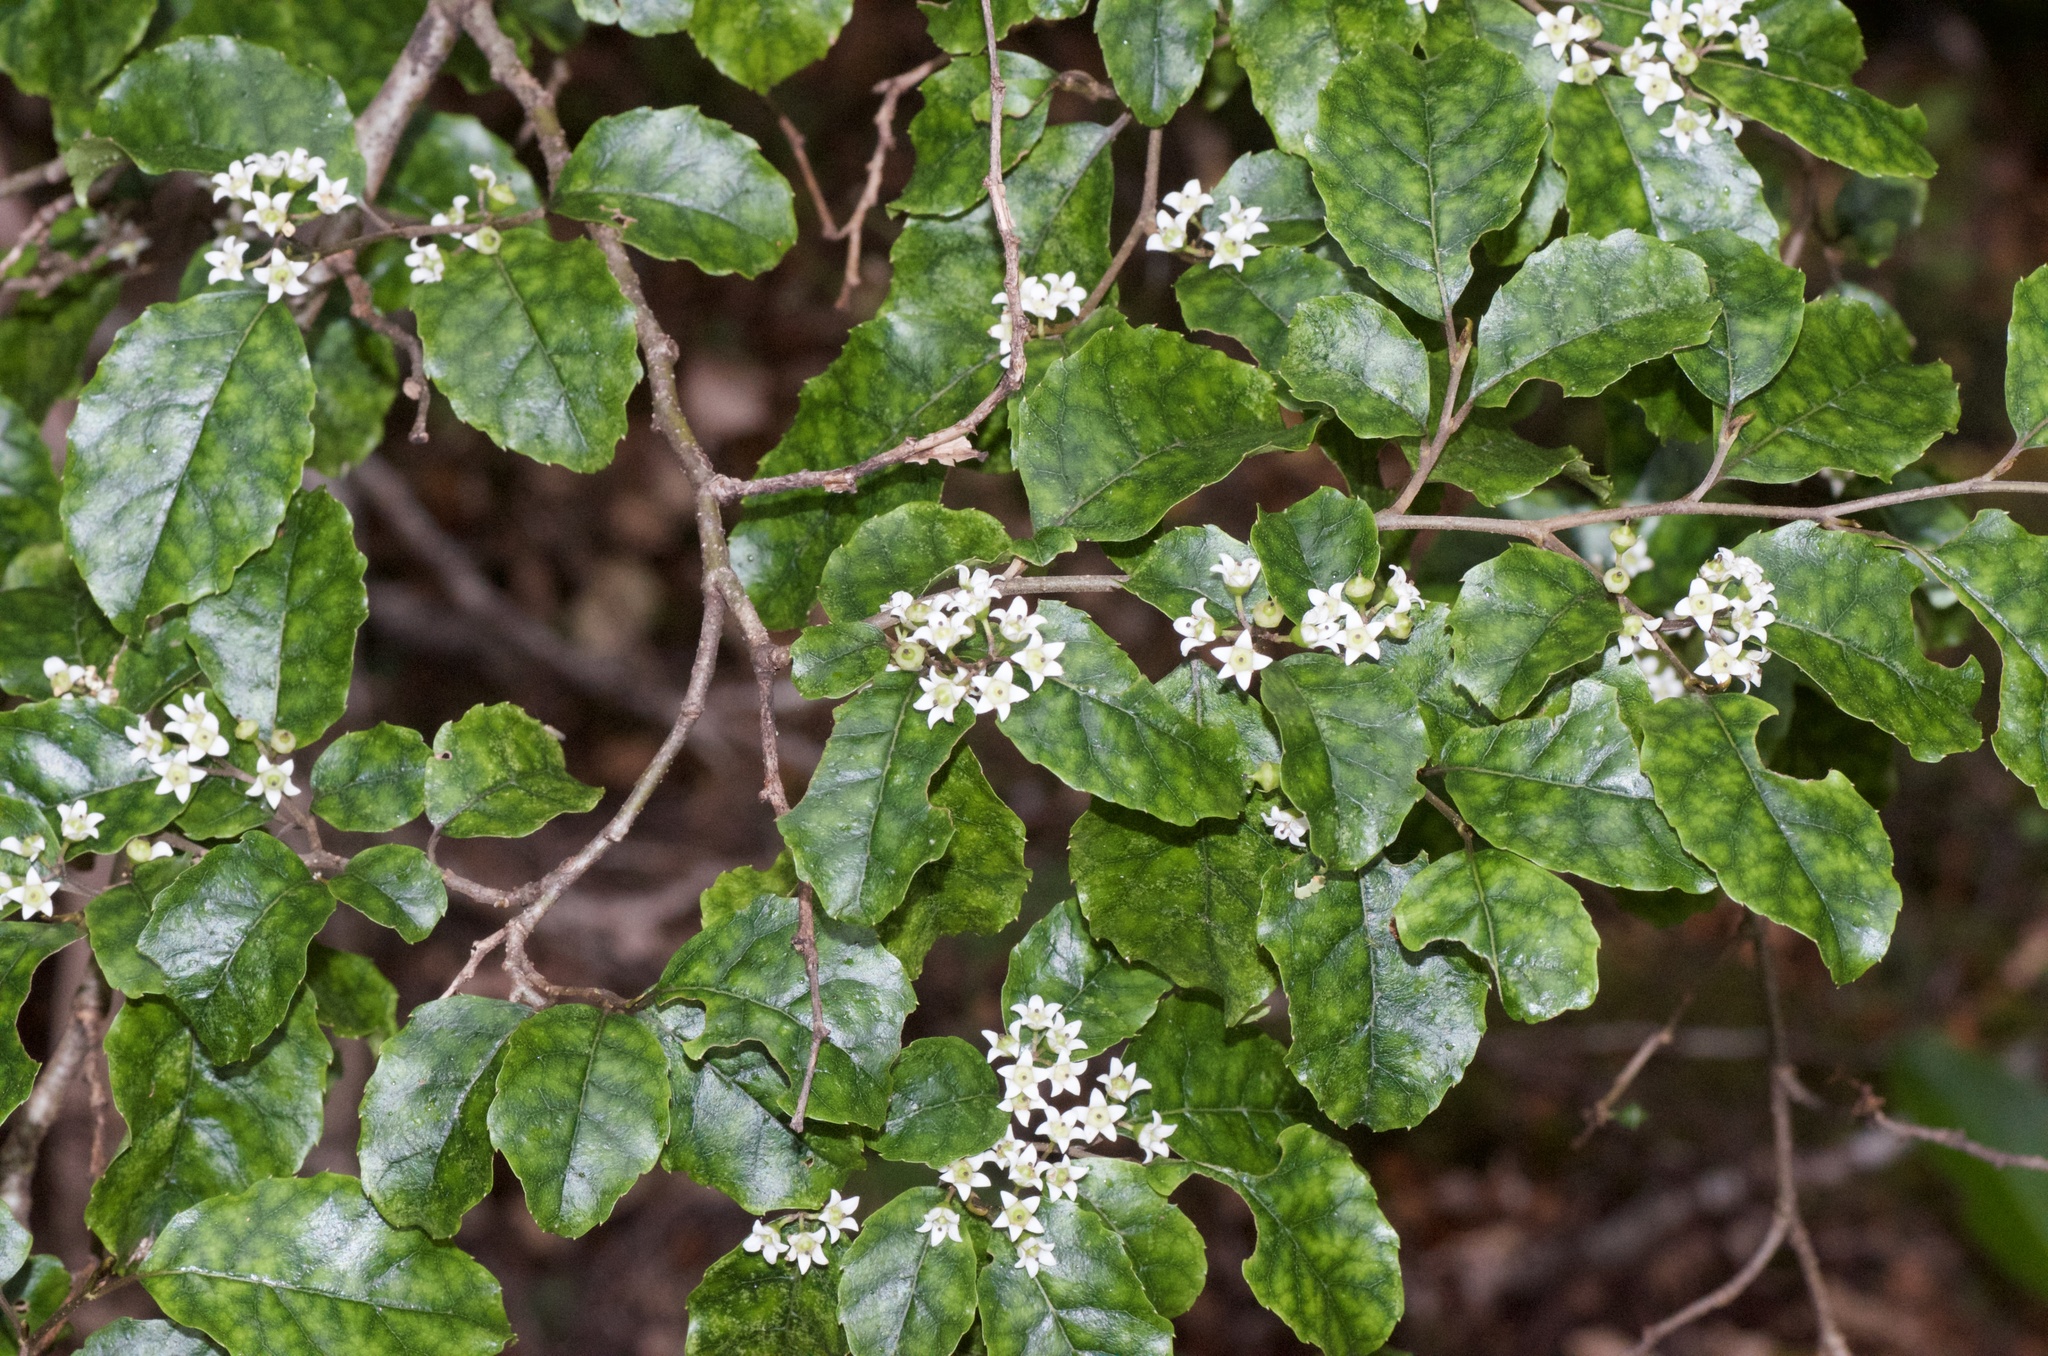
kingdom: Plantae
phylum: Tracheophyta
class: Magnoliopsida
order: Asterales
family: Rousseaceae
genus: Carpodetus
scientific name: Carpodetus serratus
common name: White mapau
